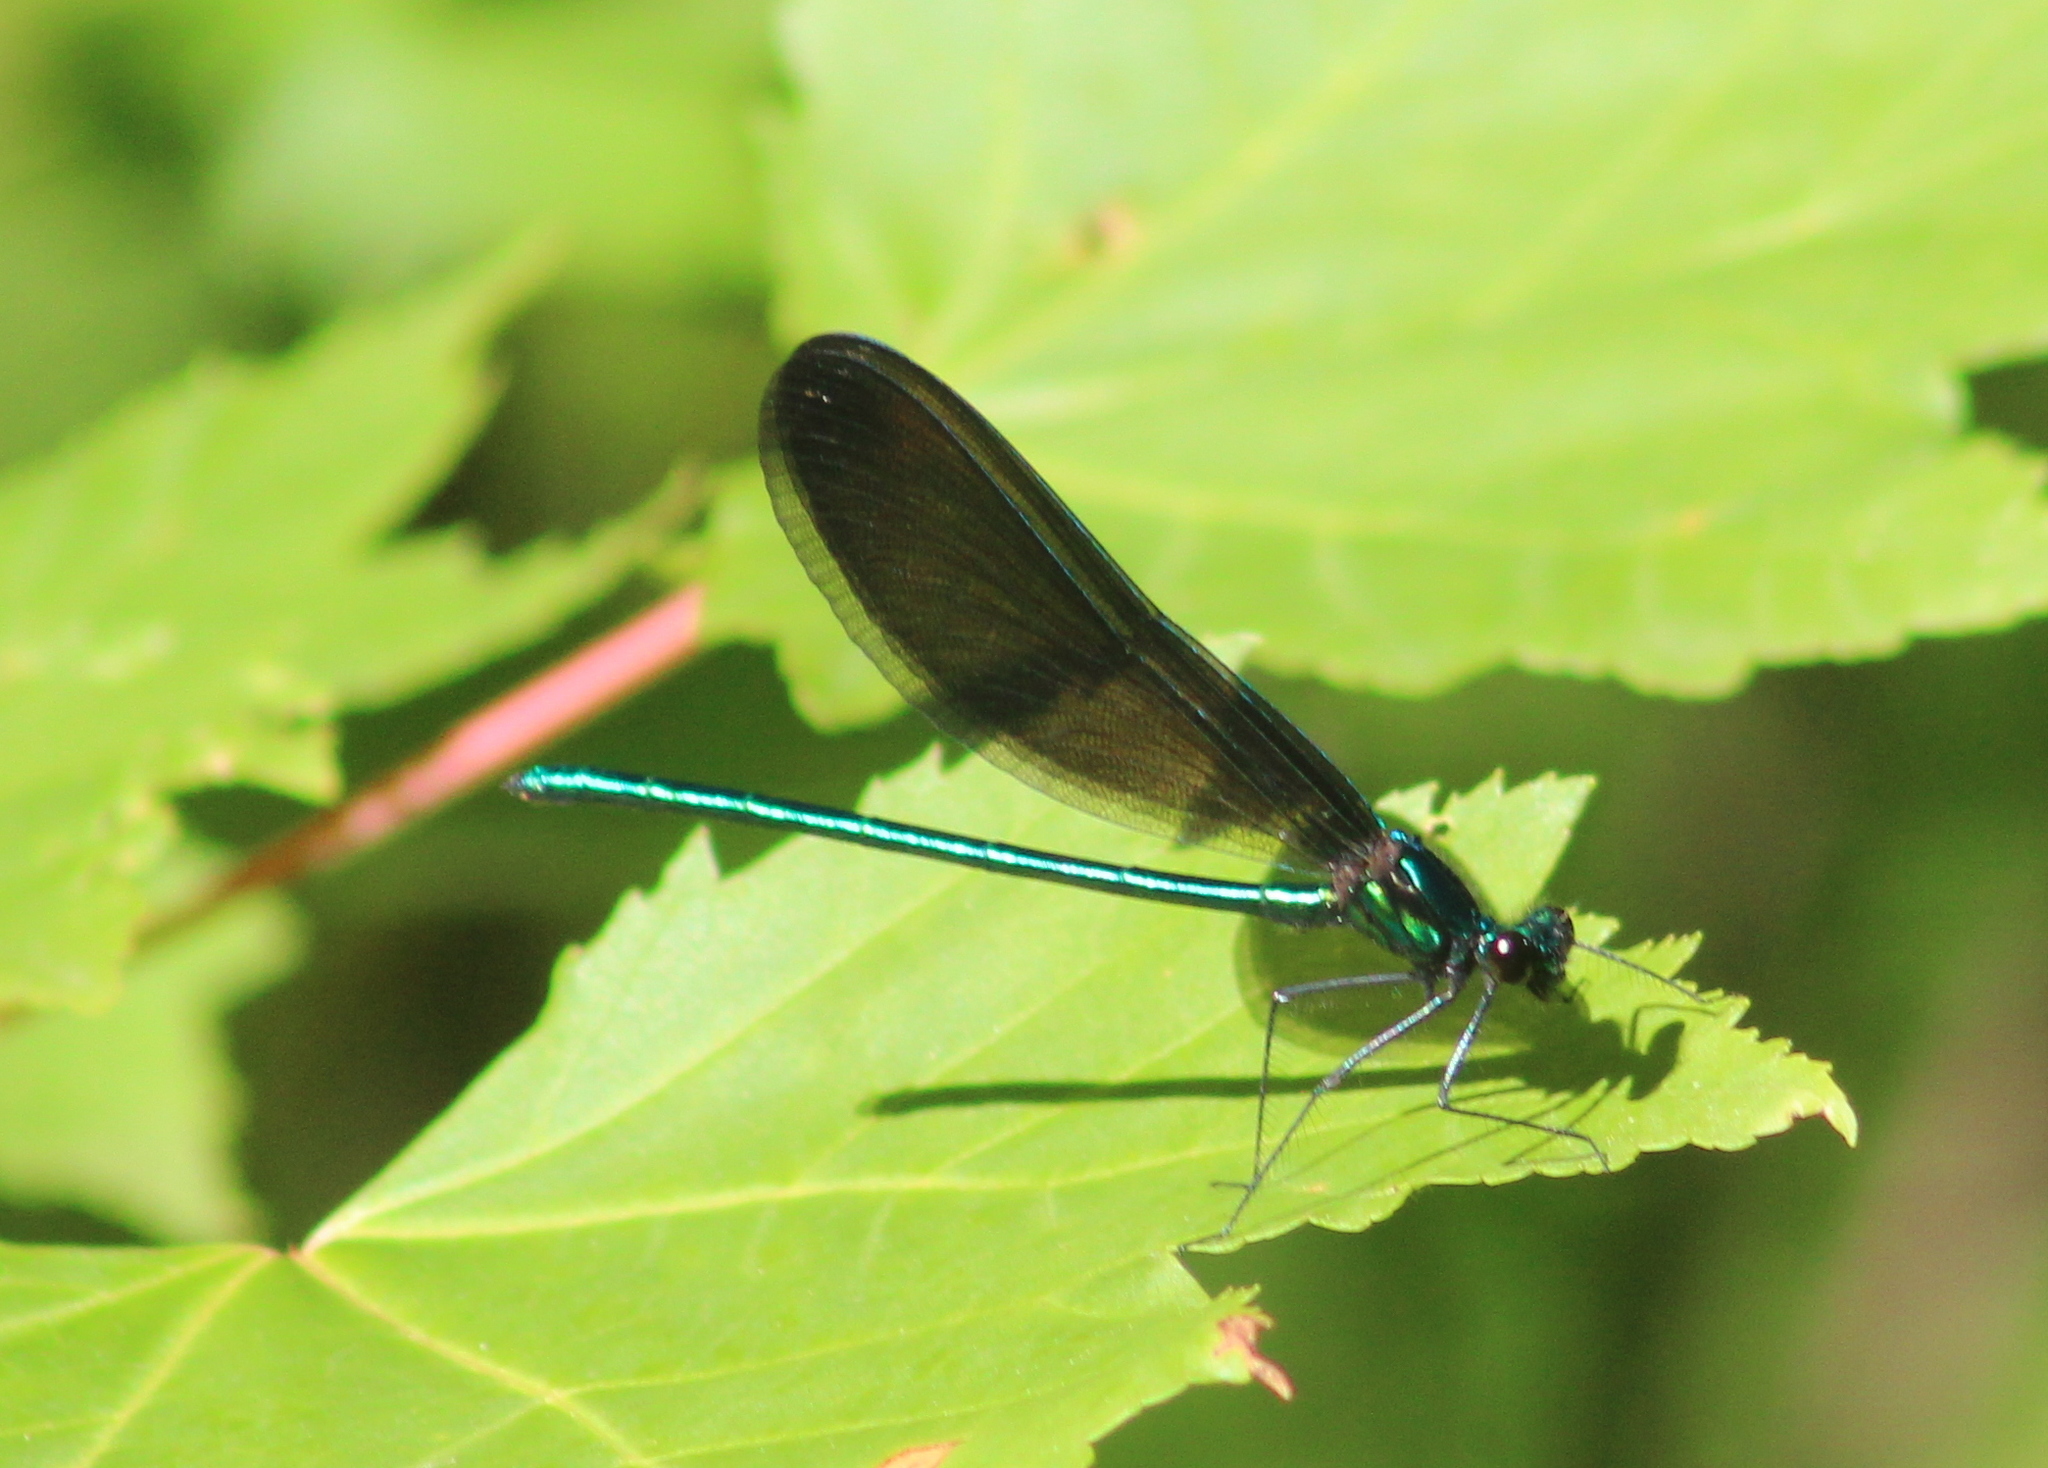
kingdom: Animalia
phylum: Arthropoda
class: Insecta
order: Odonata
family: Calopterygidae
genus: Calopteryx
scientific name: Calopteryx maculata
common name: Ebony jewelwing
